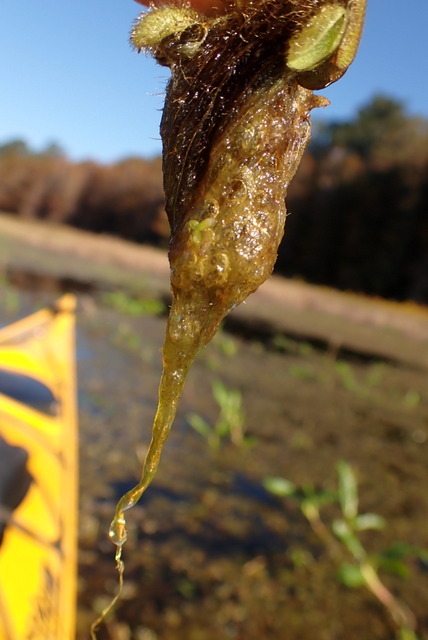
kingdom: Plantae
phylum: Tracheophyta
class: Polypodiopsida
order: Salviniales
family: Salviniaceae
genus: Salvinia
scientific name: Salvinia minima
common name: Water spangles
